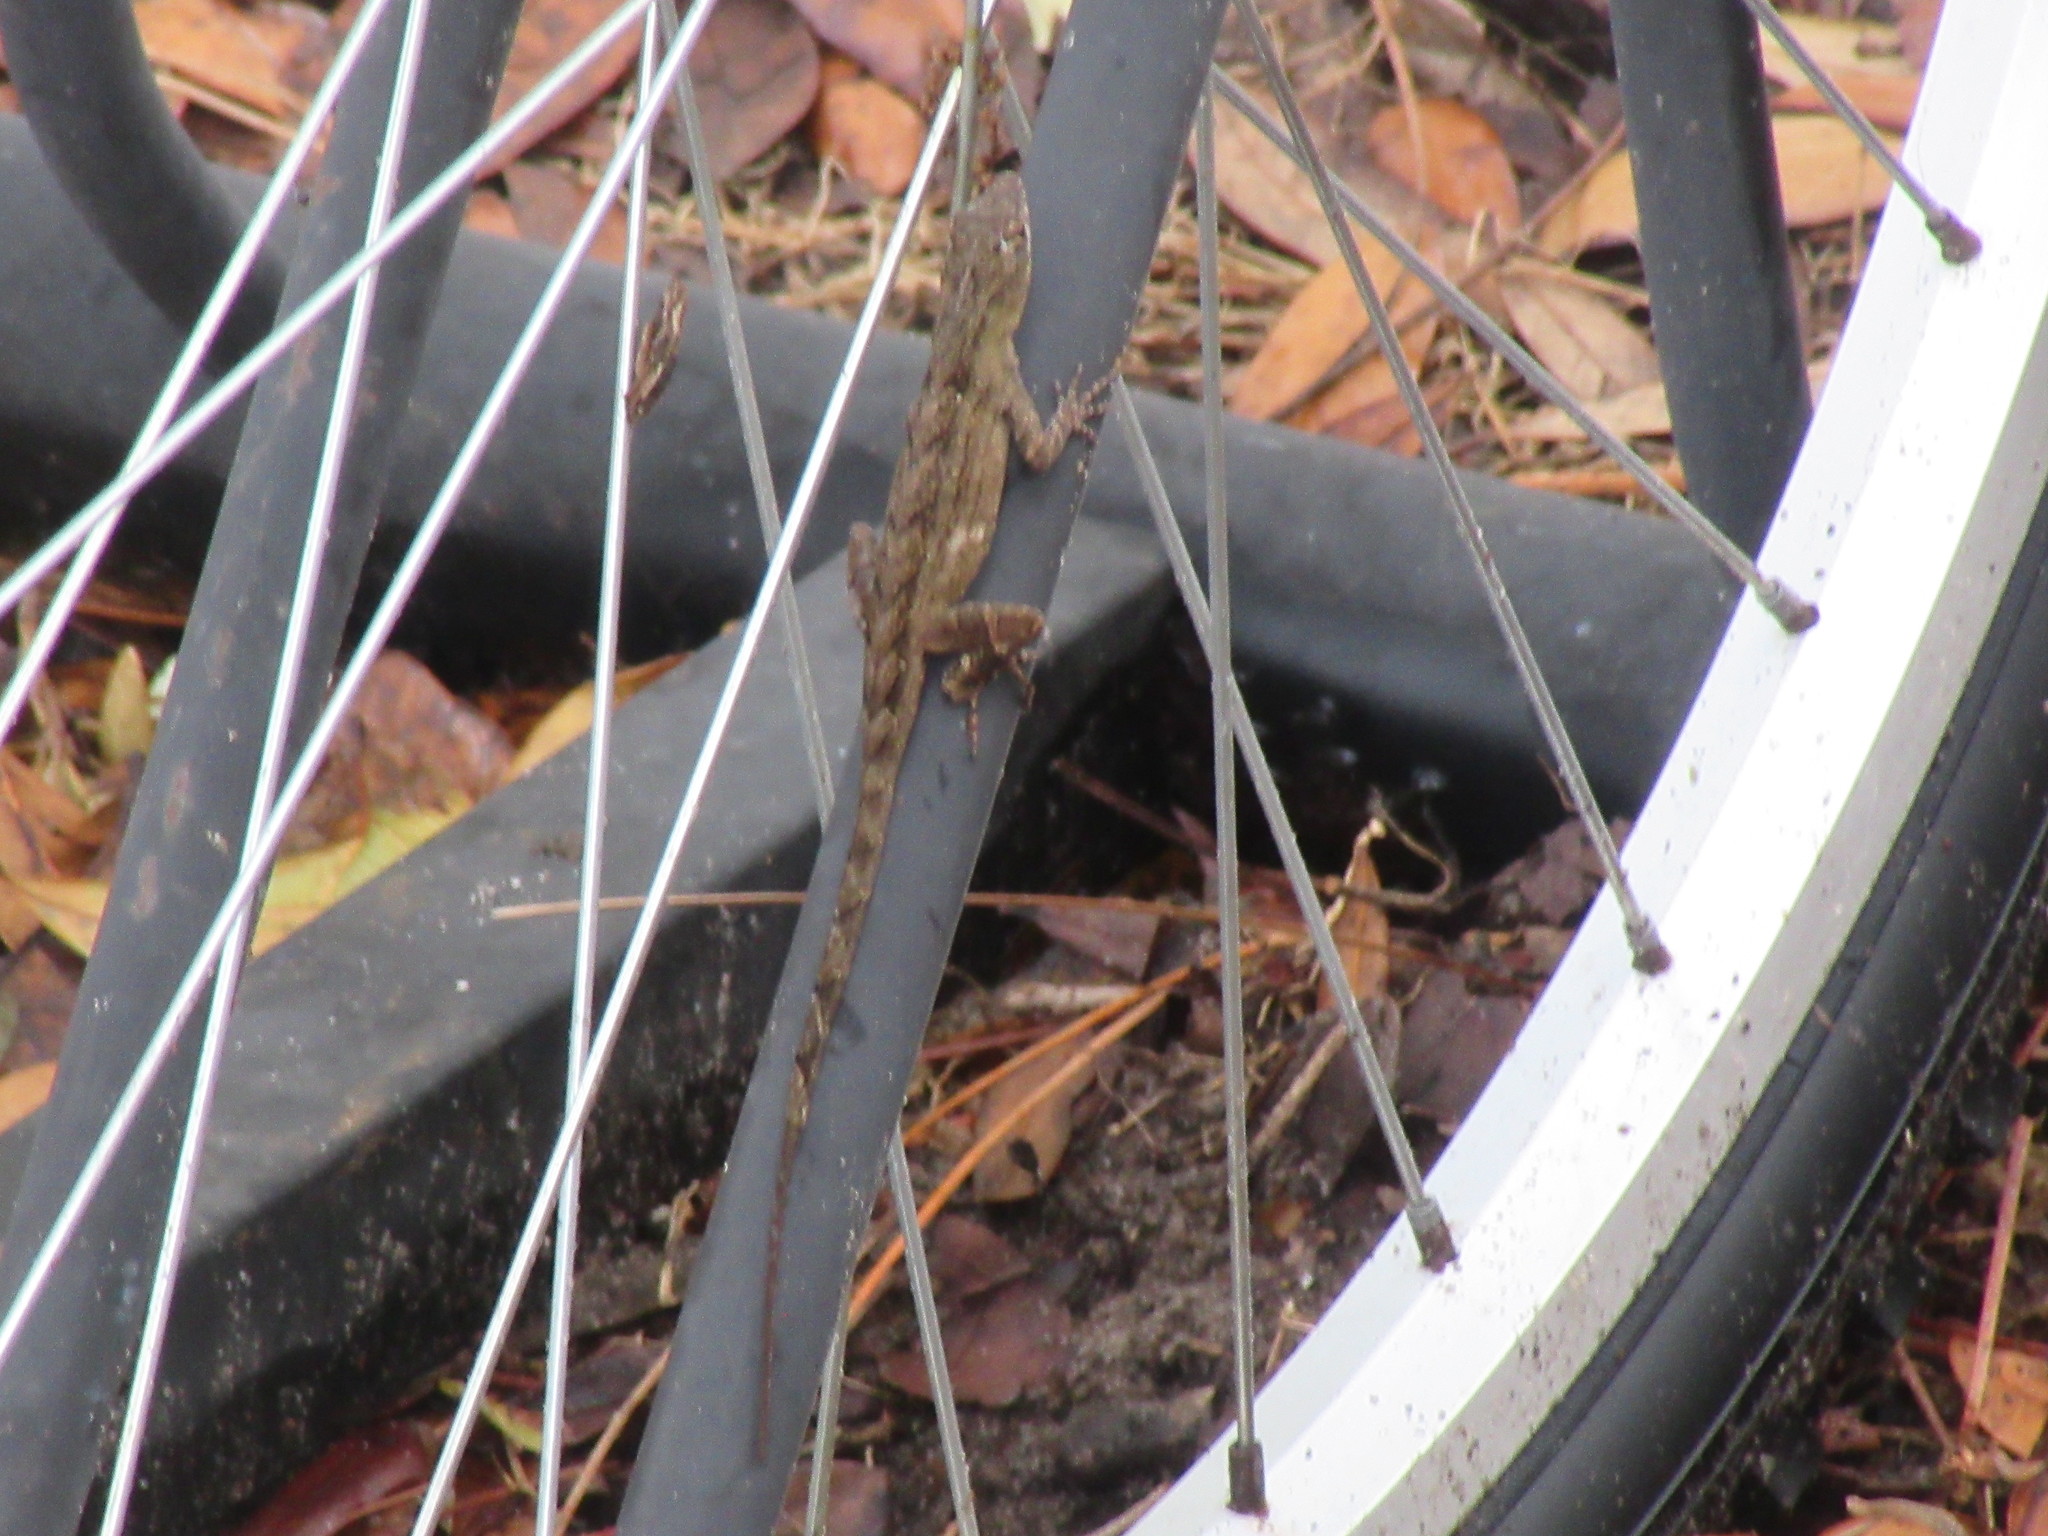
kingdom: Animalia
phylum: Chordata
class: Squamata
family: Dactyloidae
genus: Anolis
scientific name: Anolis sagrei
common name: Brown anole
